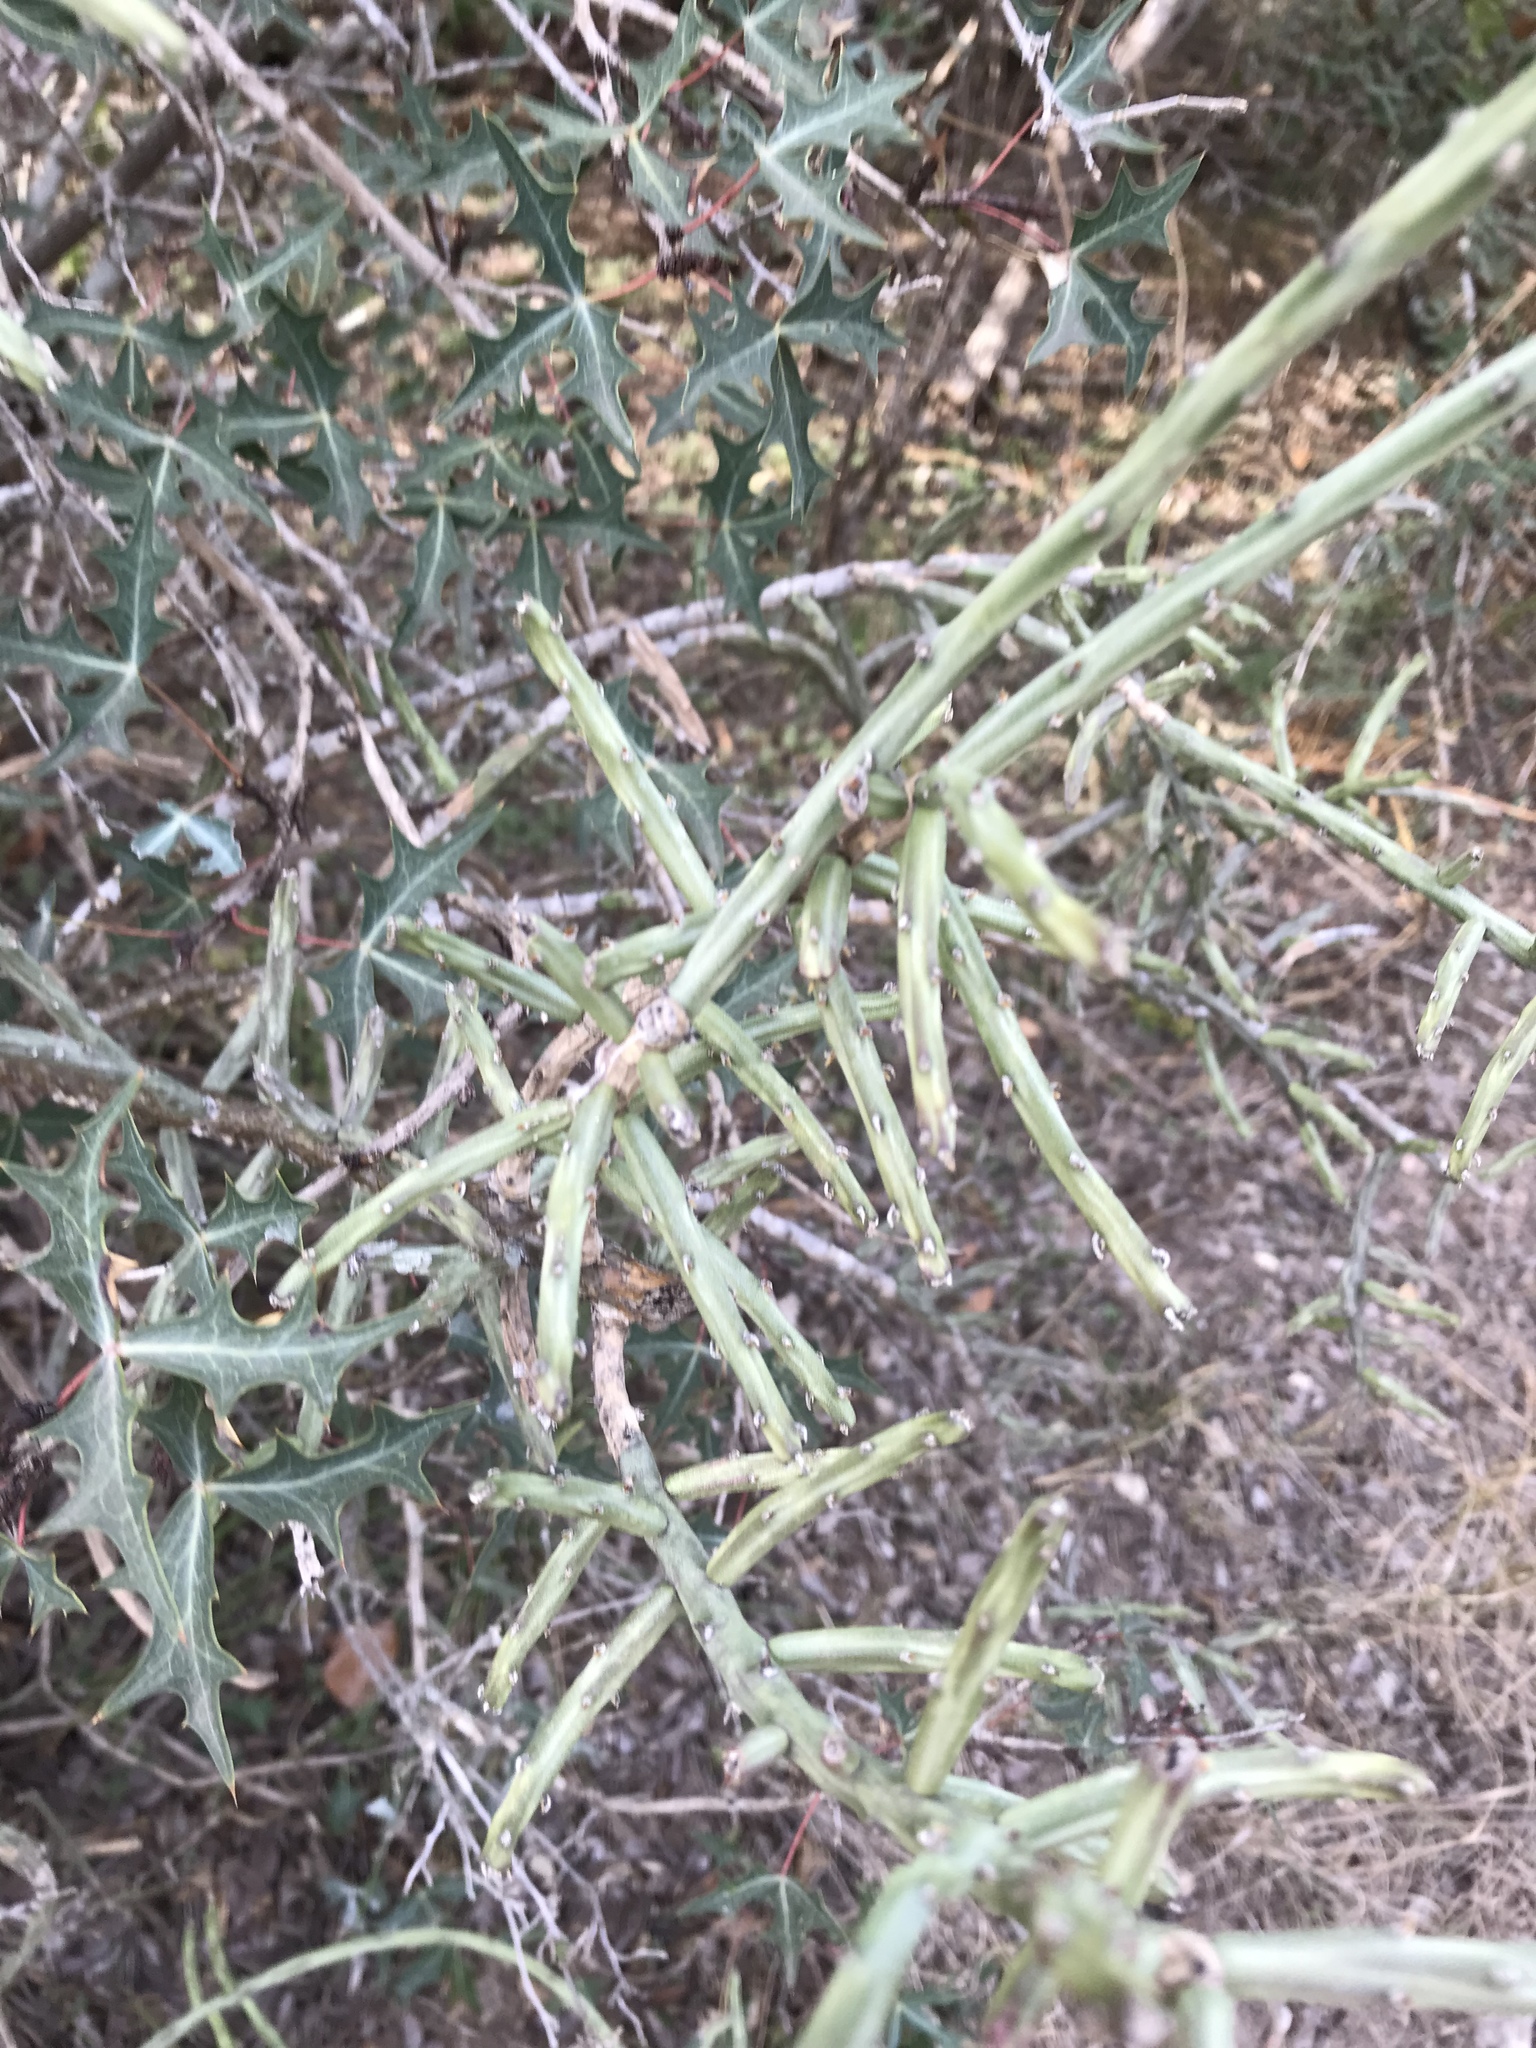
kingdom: Plantae
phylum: Tracheophyta
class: Magnoliopsida
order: Caryophyllales
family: Cactaceae
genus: Cylindropuntia
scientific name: Cylindropuntia leptocaulis
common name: Christmas cactus
